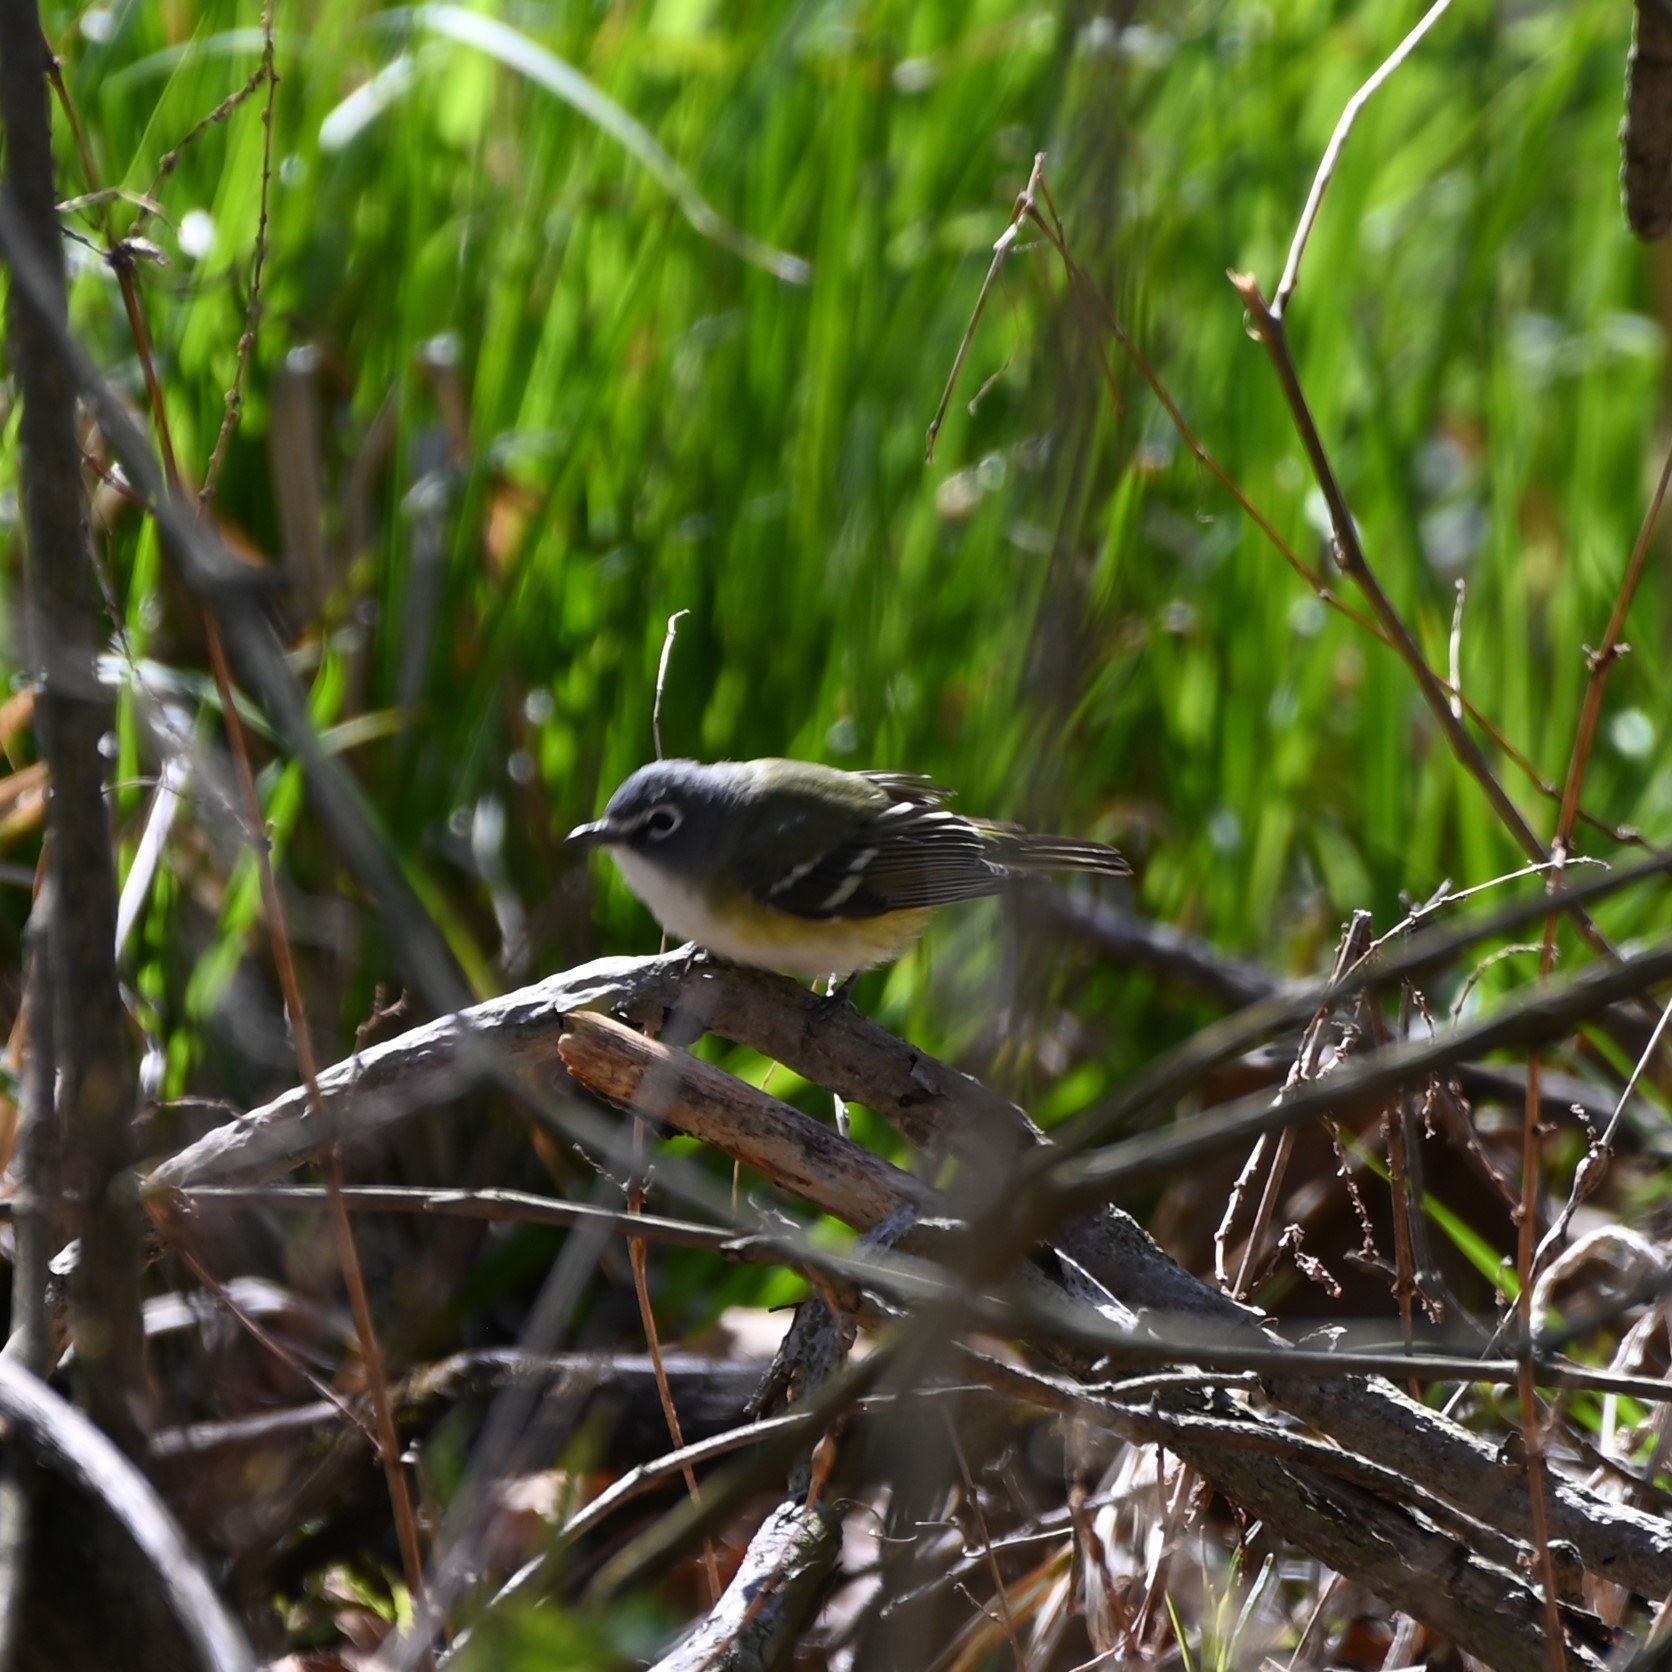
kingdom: Animalia
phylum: Chordata
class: Aves
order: Passeriformes
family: Vireonidae
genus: Vireo
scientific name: Vireo solitarius
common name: Blue-headed vireo
